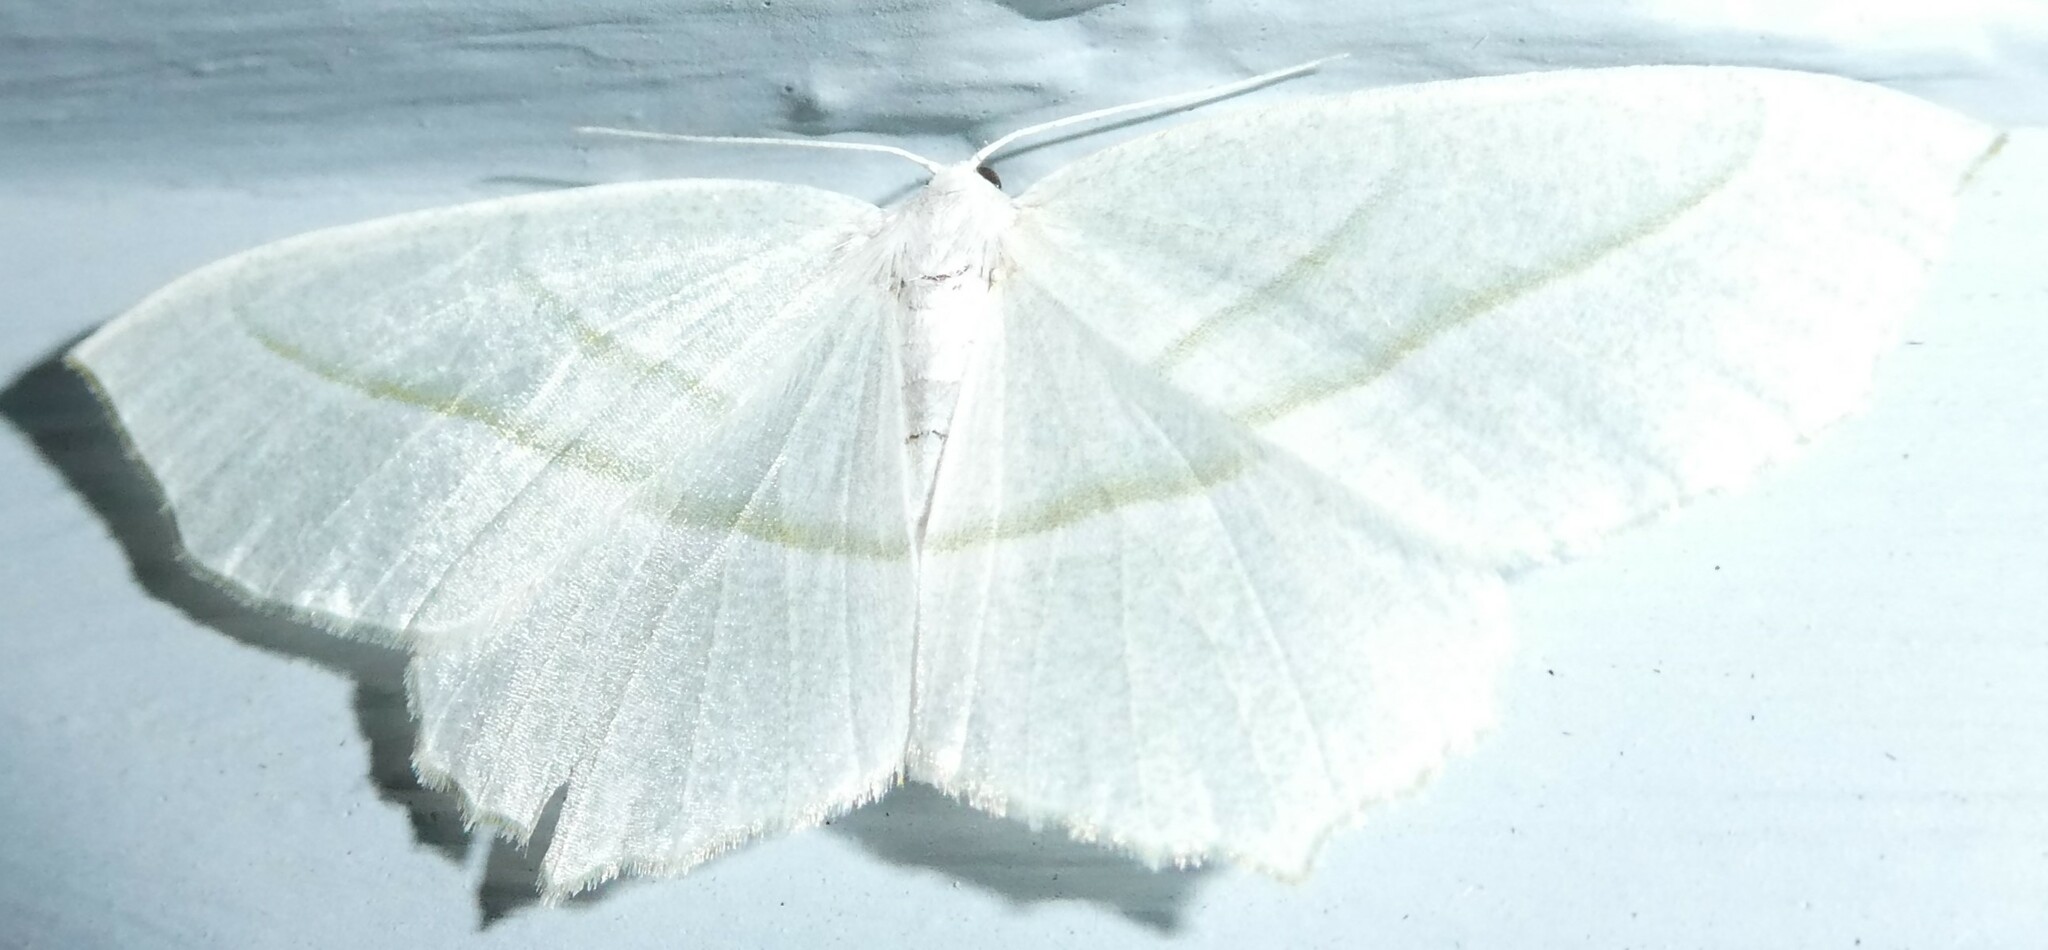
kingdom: Animalia
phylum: Arthropoda
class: Insecta
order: Lepidoptera
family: Geometridae
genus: Campaea
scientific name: Campaea perlata
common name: Fringed looper
